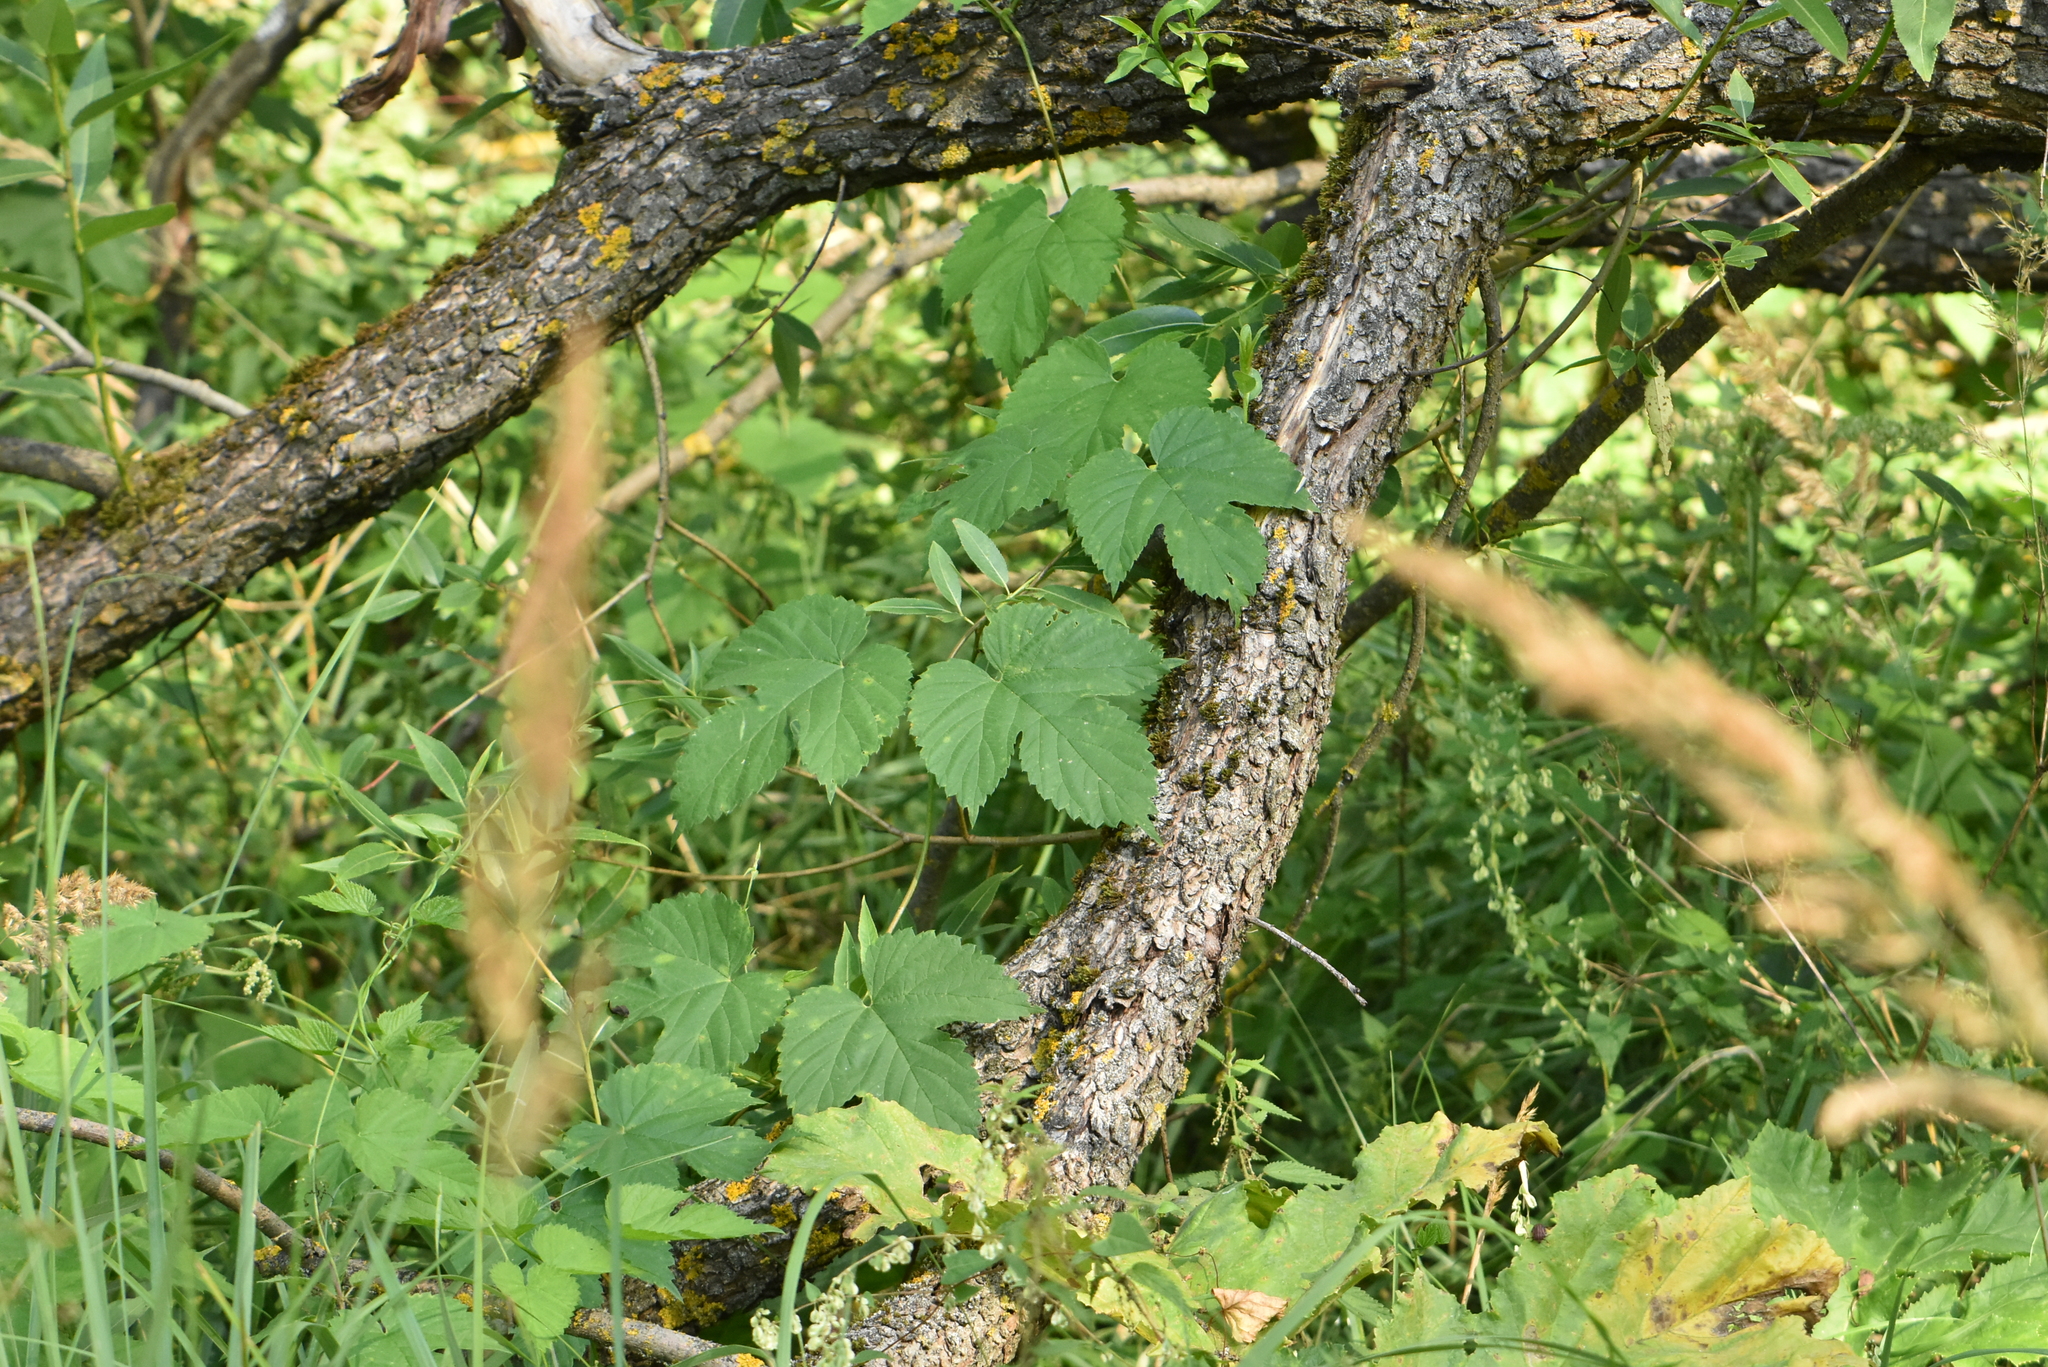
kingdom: Plantae
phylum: Tracheophyta
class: Magnoliopsida
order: Rosales
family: Cannabaceae
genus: Humulus
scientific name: Humulus lupulus
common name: Hop
